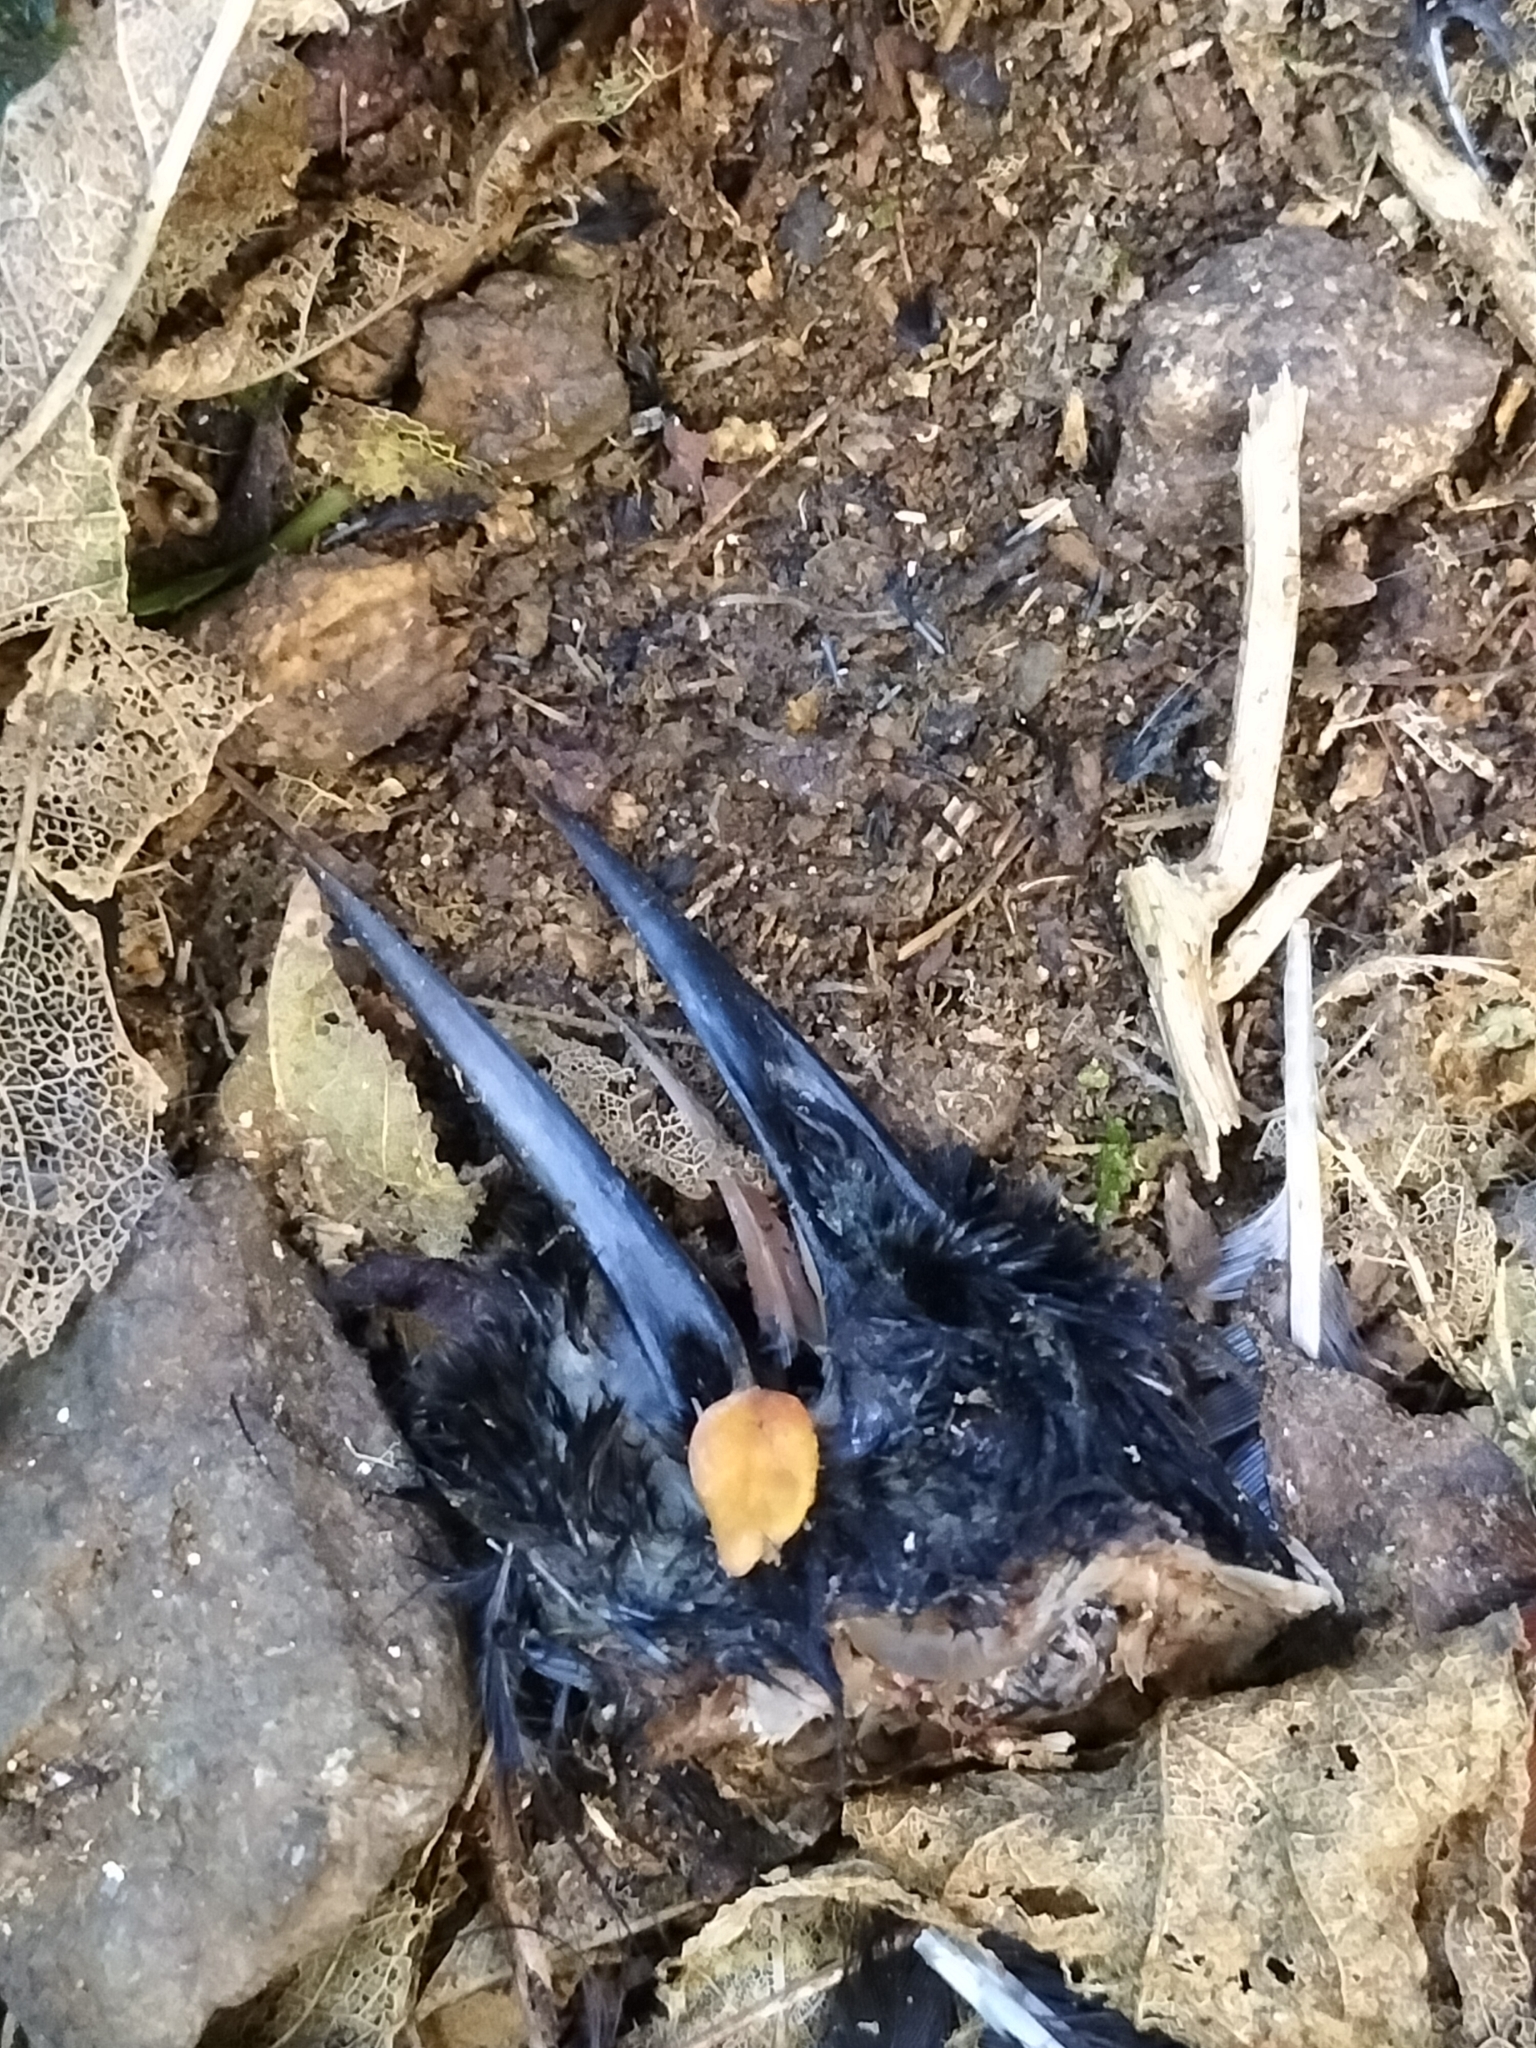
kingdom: Animalia
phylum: Chordata
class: Aves
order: Passeriformes
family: Callaeatidae
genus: Philesturnus
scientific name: Philesturnus carunculatus
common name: South island saddleback
